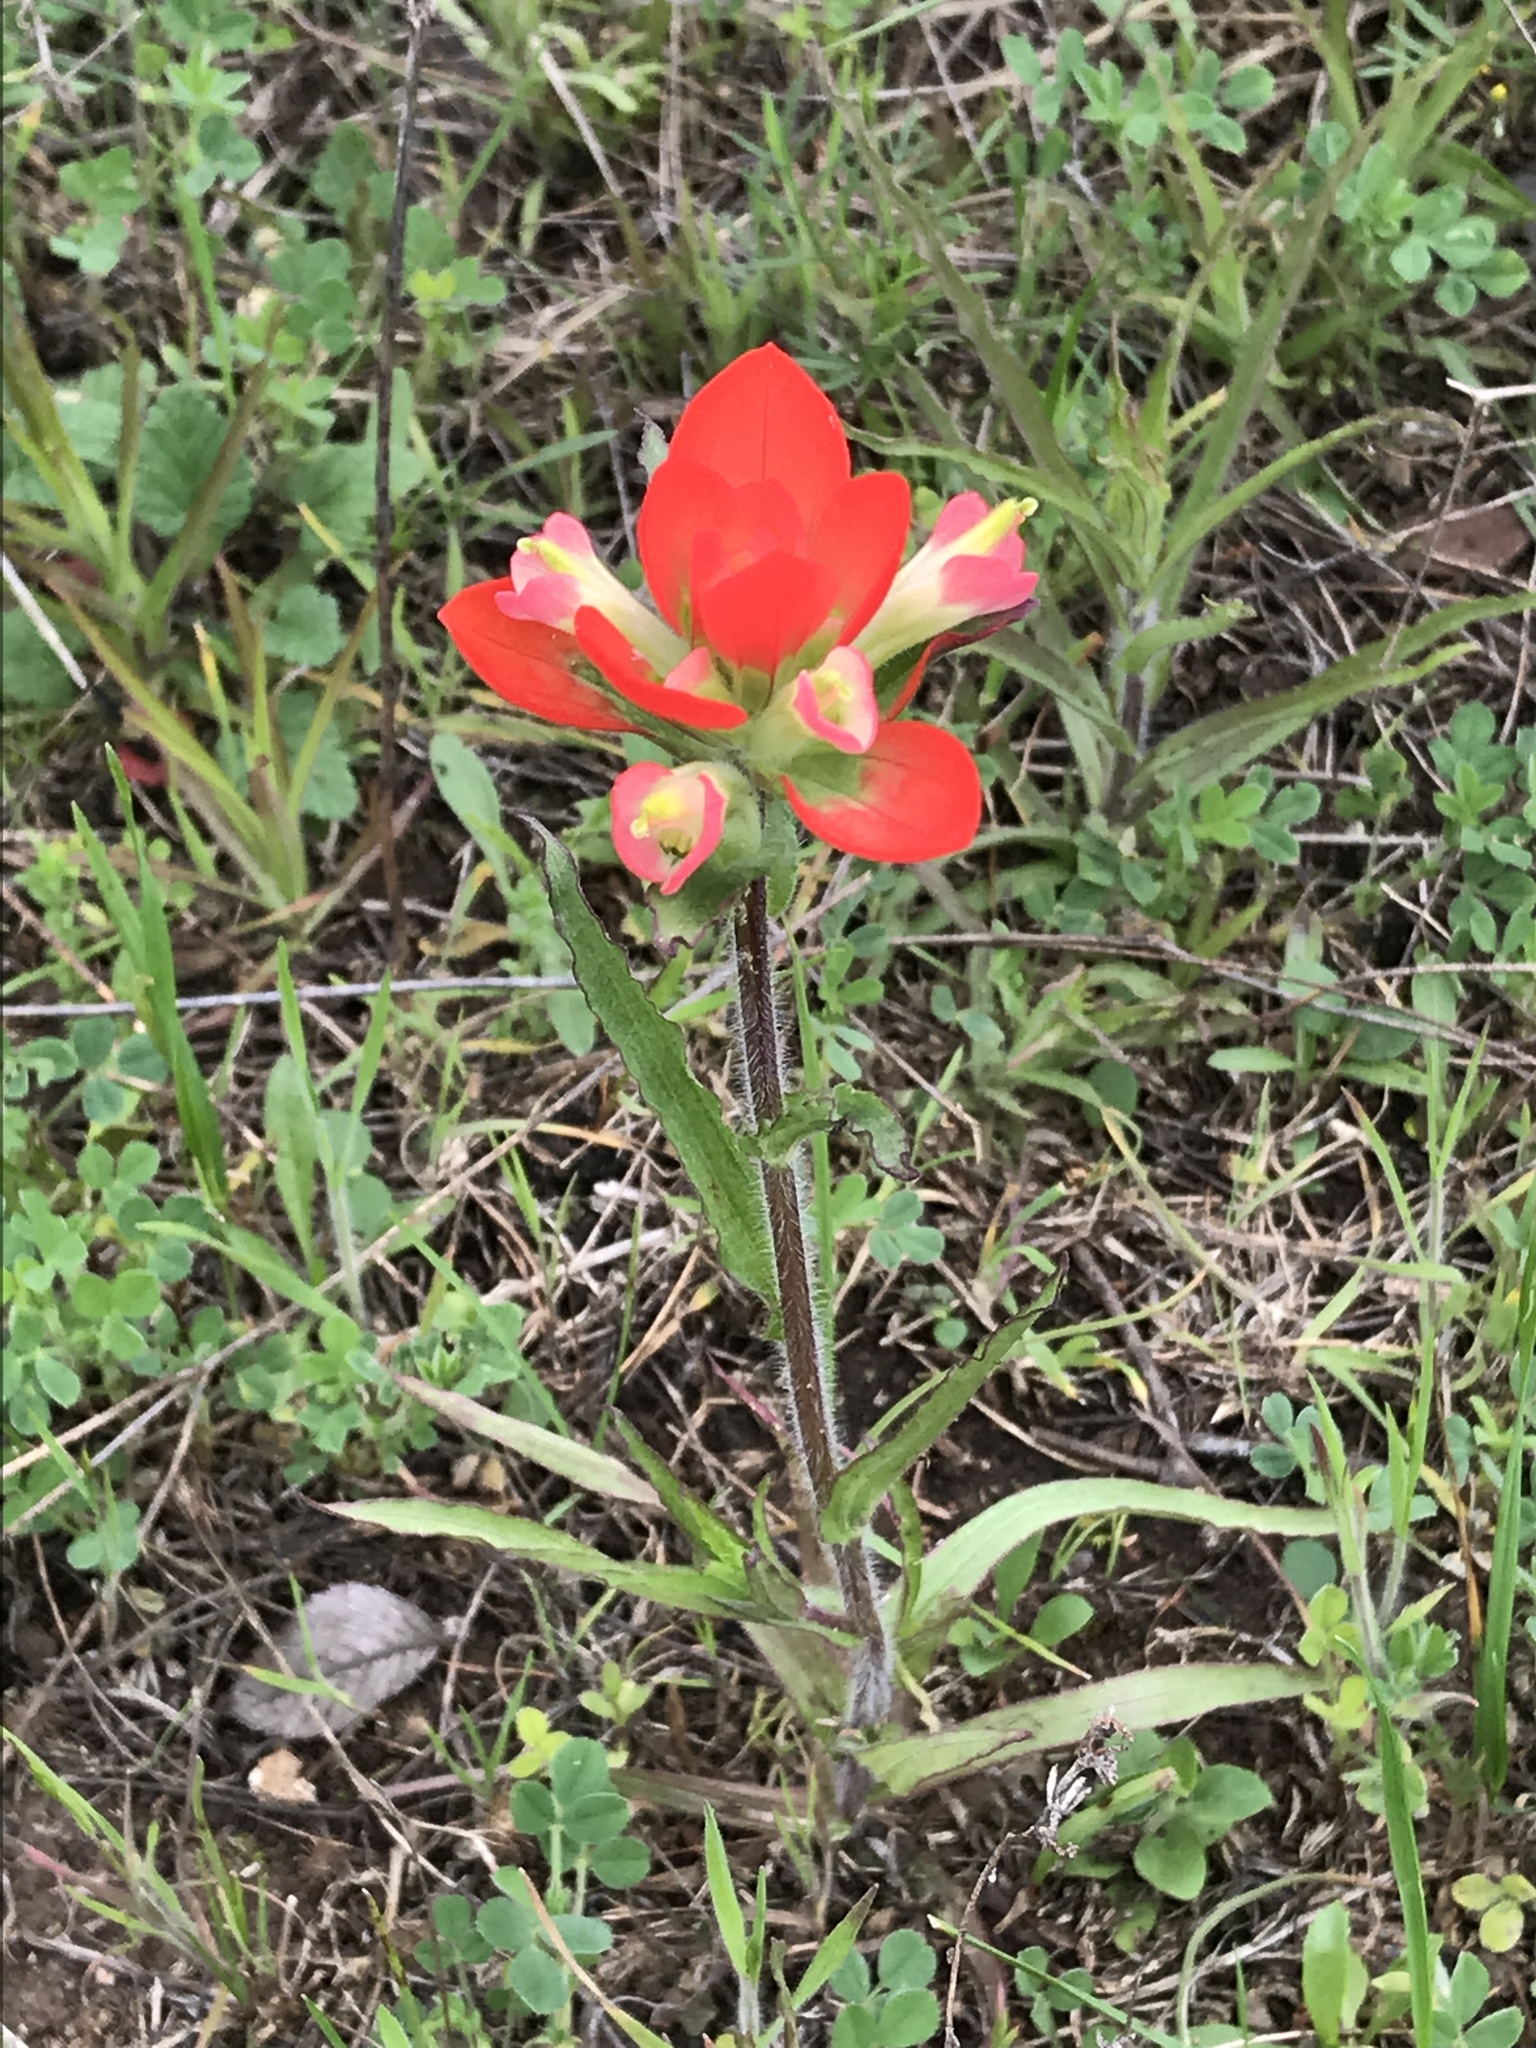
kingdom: Plantae
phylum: Tracheophyta
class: Magnoliopsida
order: Lamiales
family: Orobanchaceae
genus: Castilleja
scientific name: Castilleja indivisa
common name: Texas paintbrush
